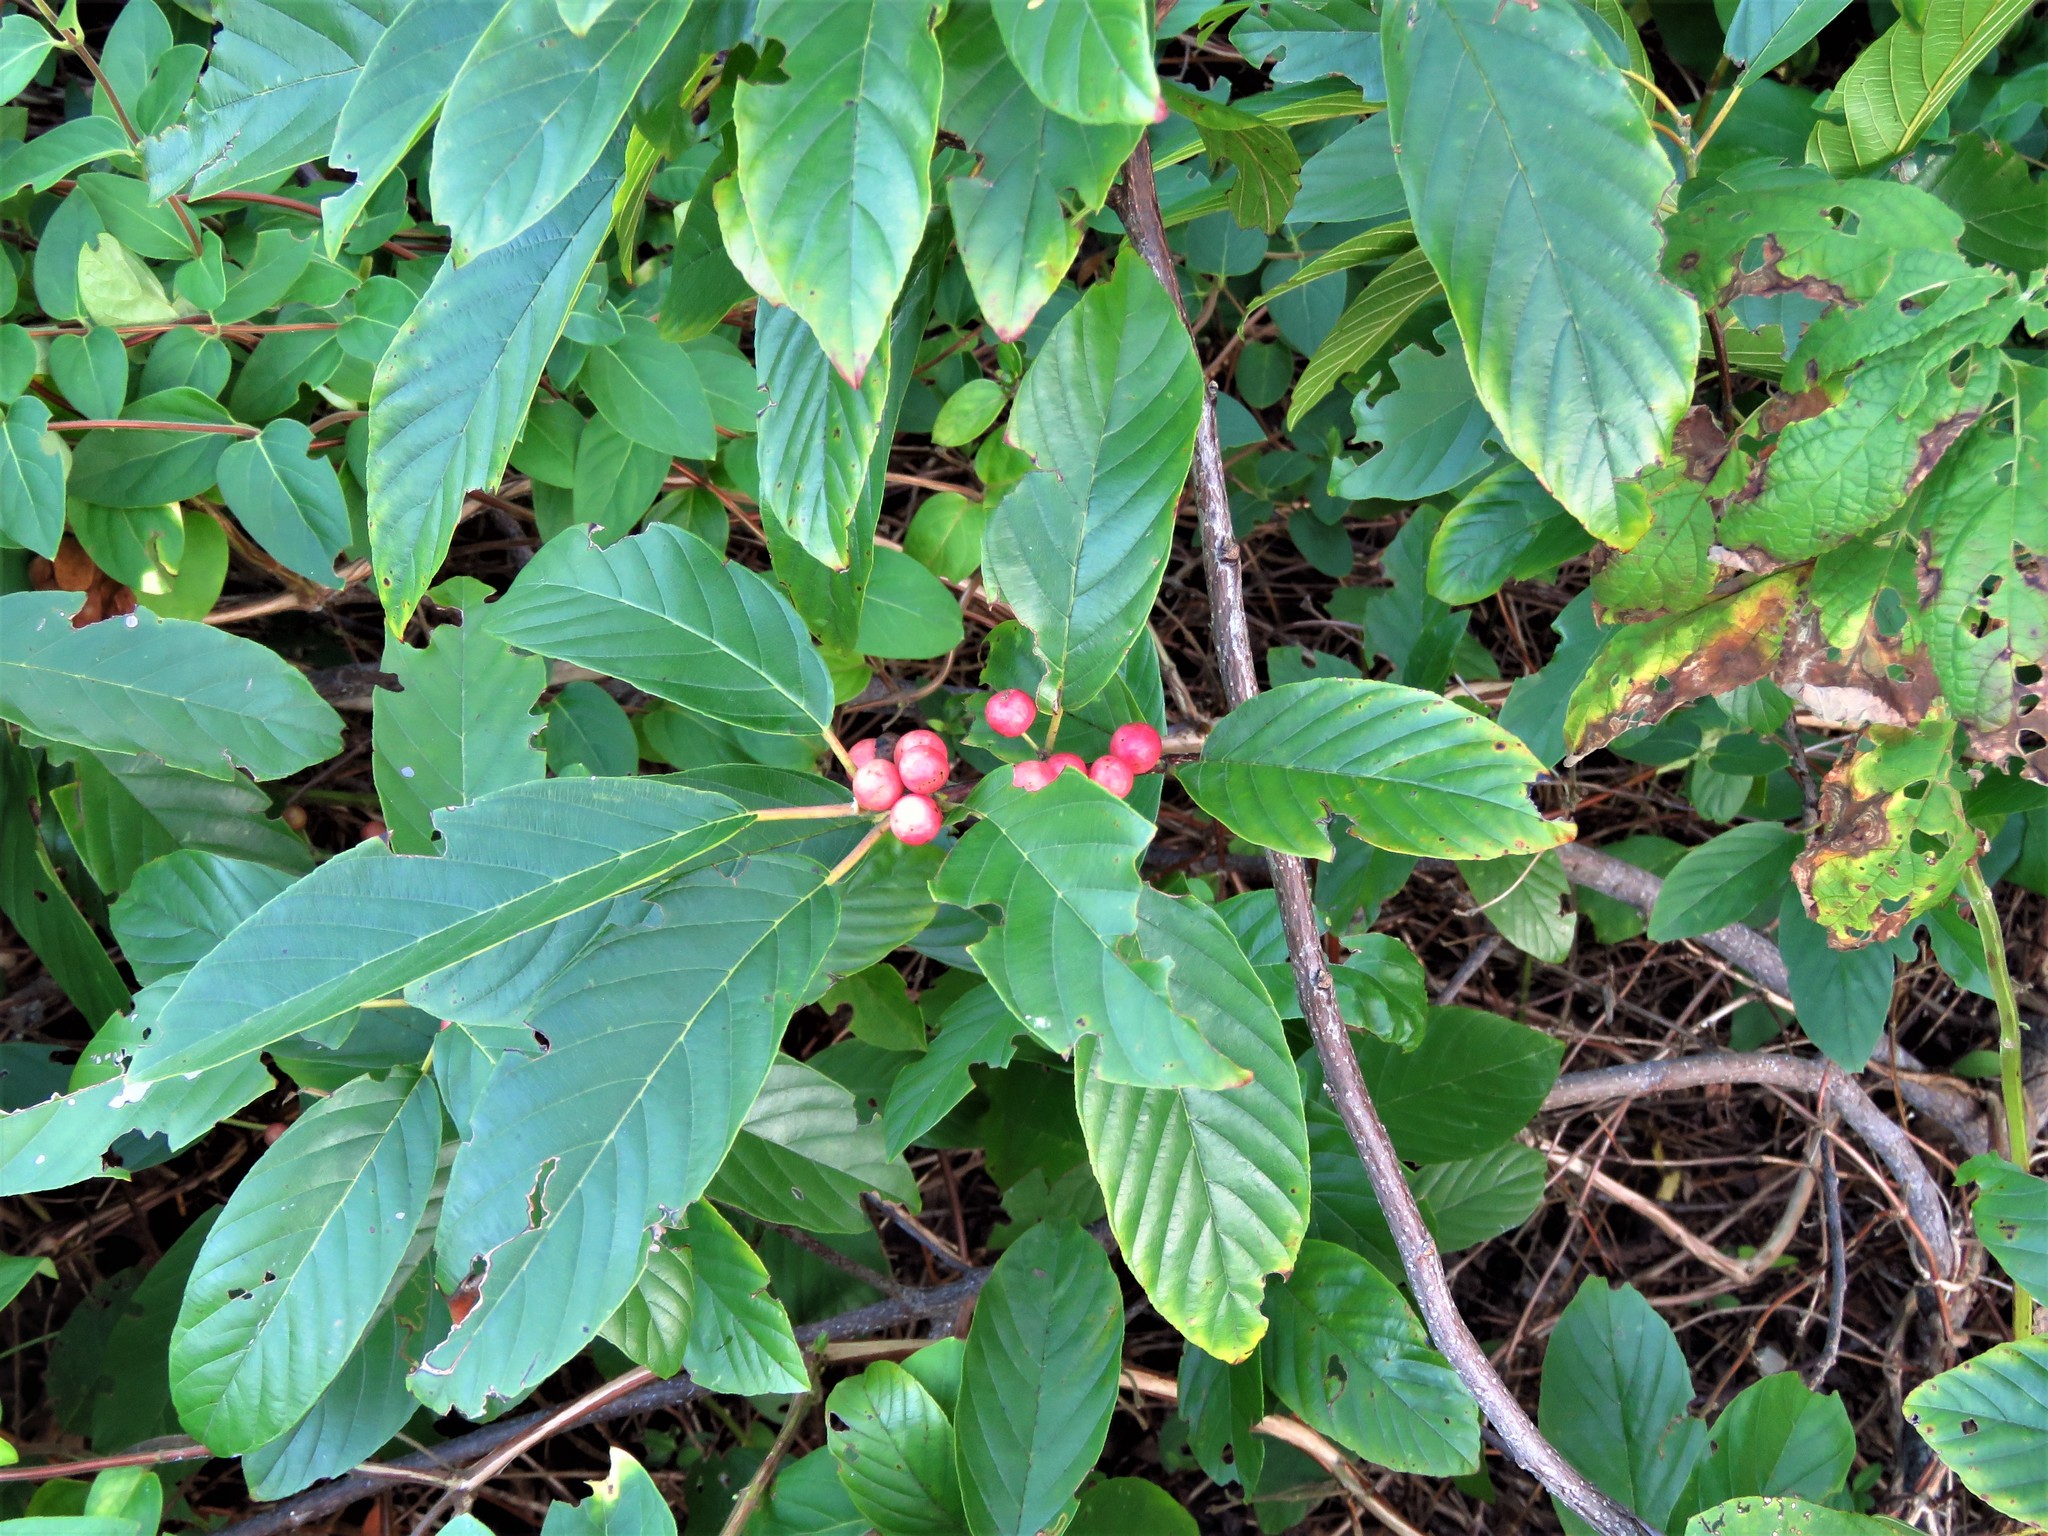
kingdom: Plantae
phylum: Tracheophyta
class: Magnoliopsida
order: Rosales
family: Rhamnaceae
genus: Frangula
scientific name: Frangula caroliniana
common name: Carolina buckthorn
